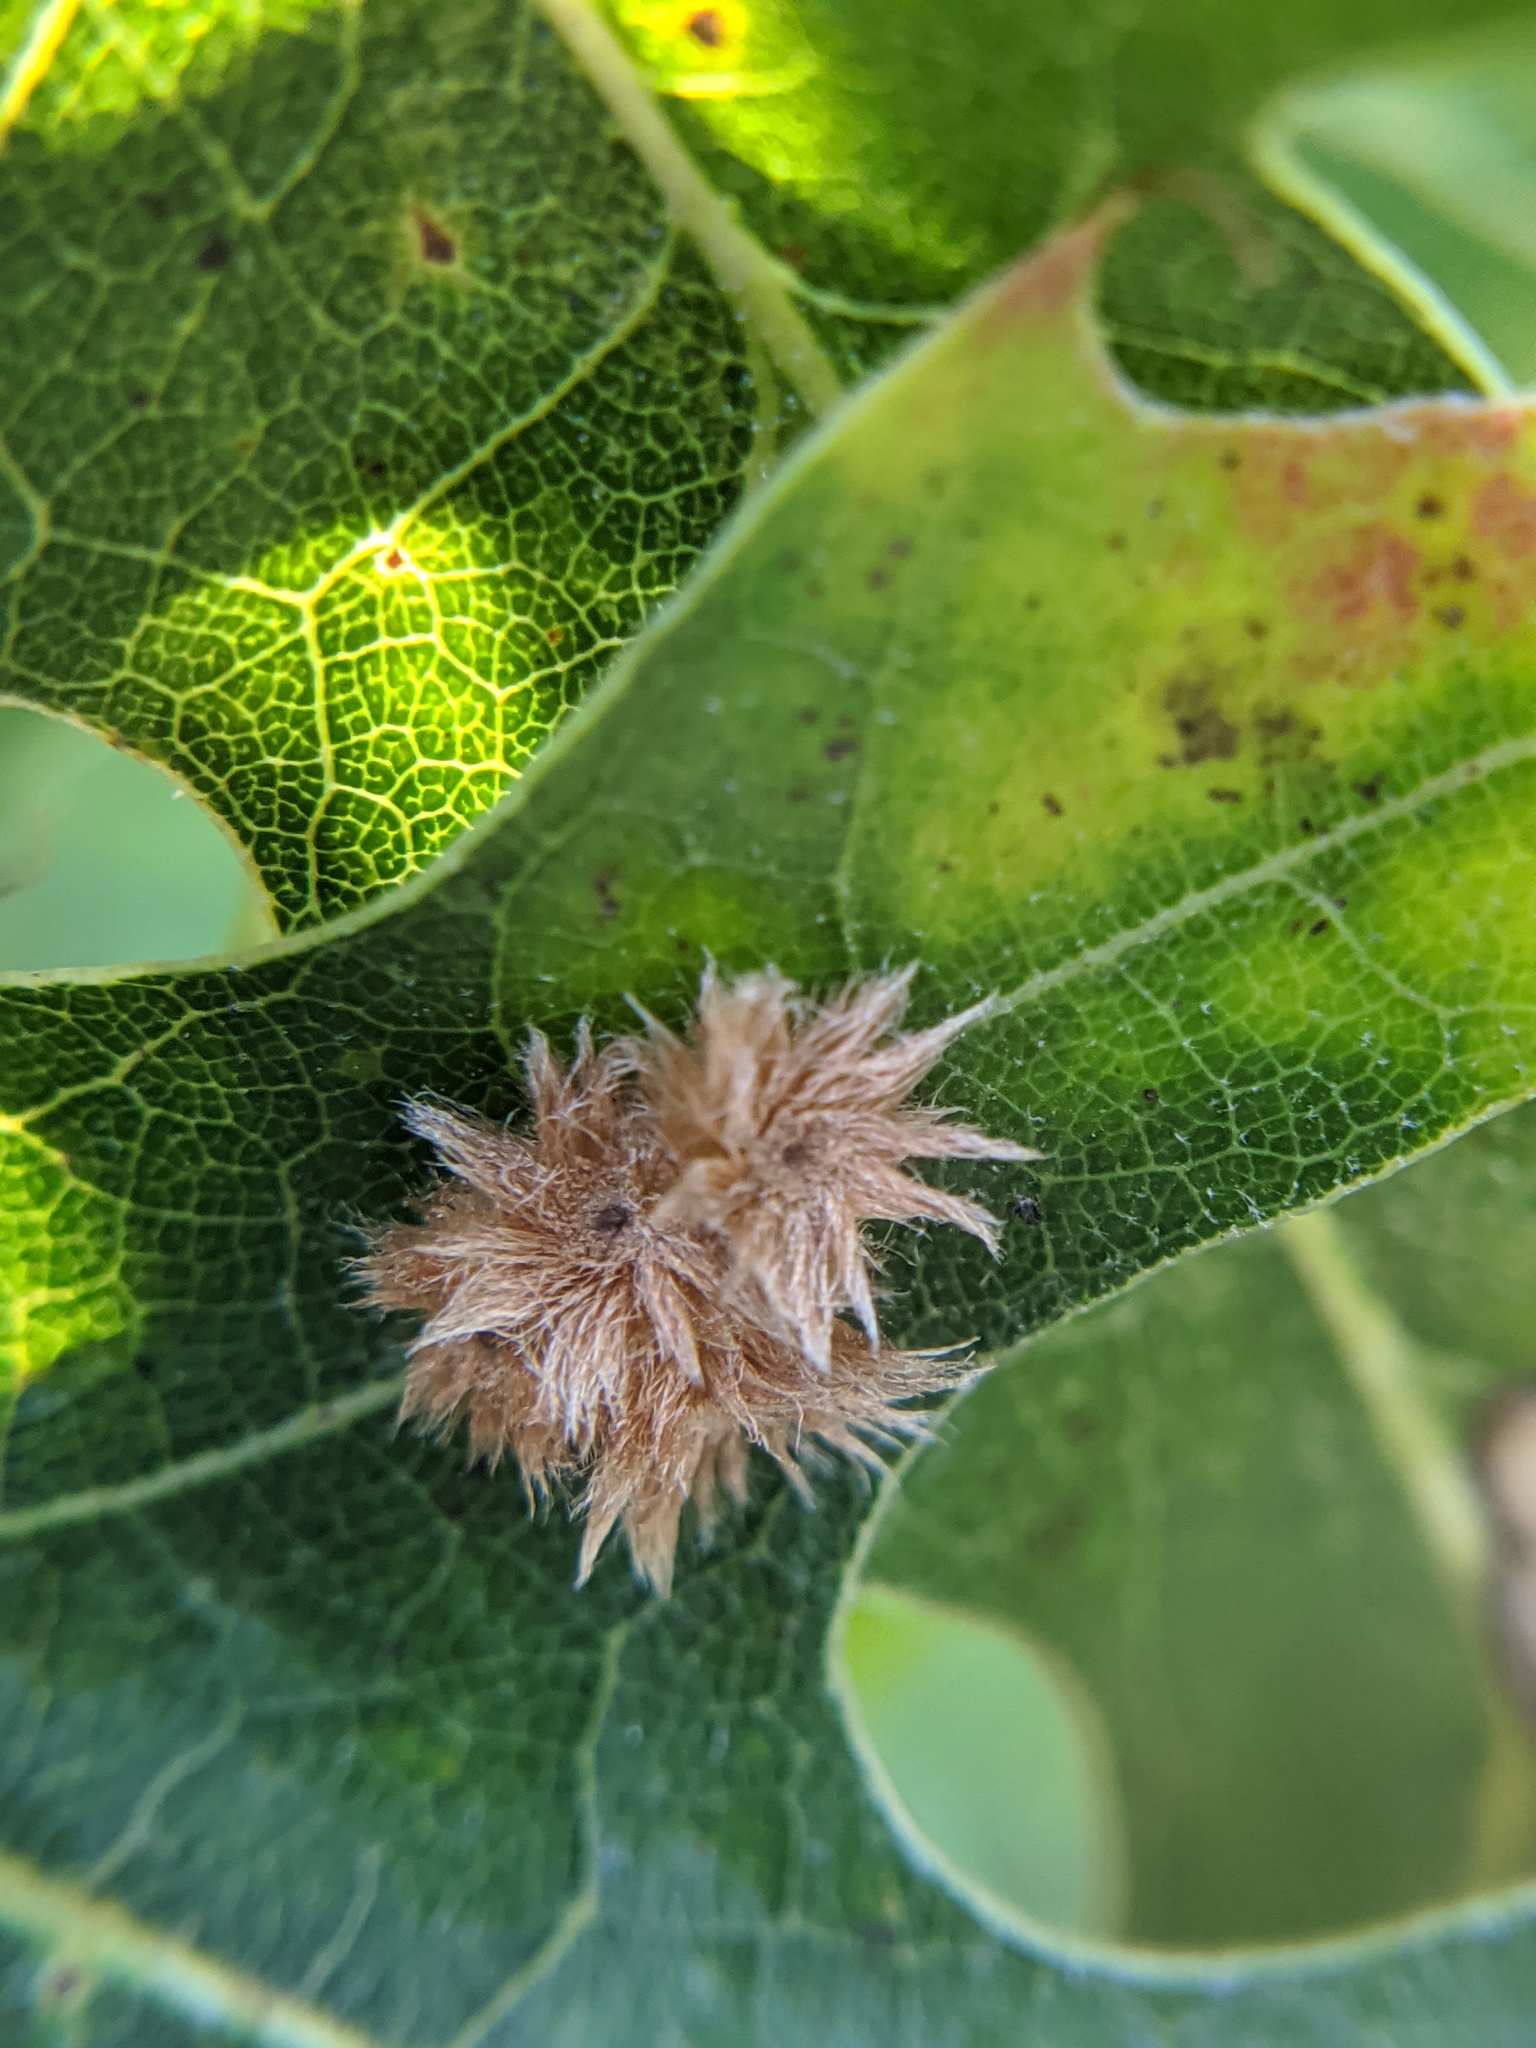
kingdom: Animalia
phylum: Arthropoda
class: Insecta
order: Hymenoptera
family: Cynipidae
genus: Callirhytis
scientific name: Callirhytis
